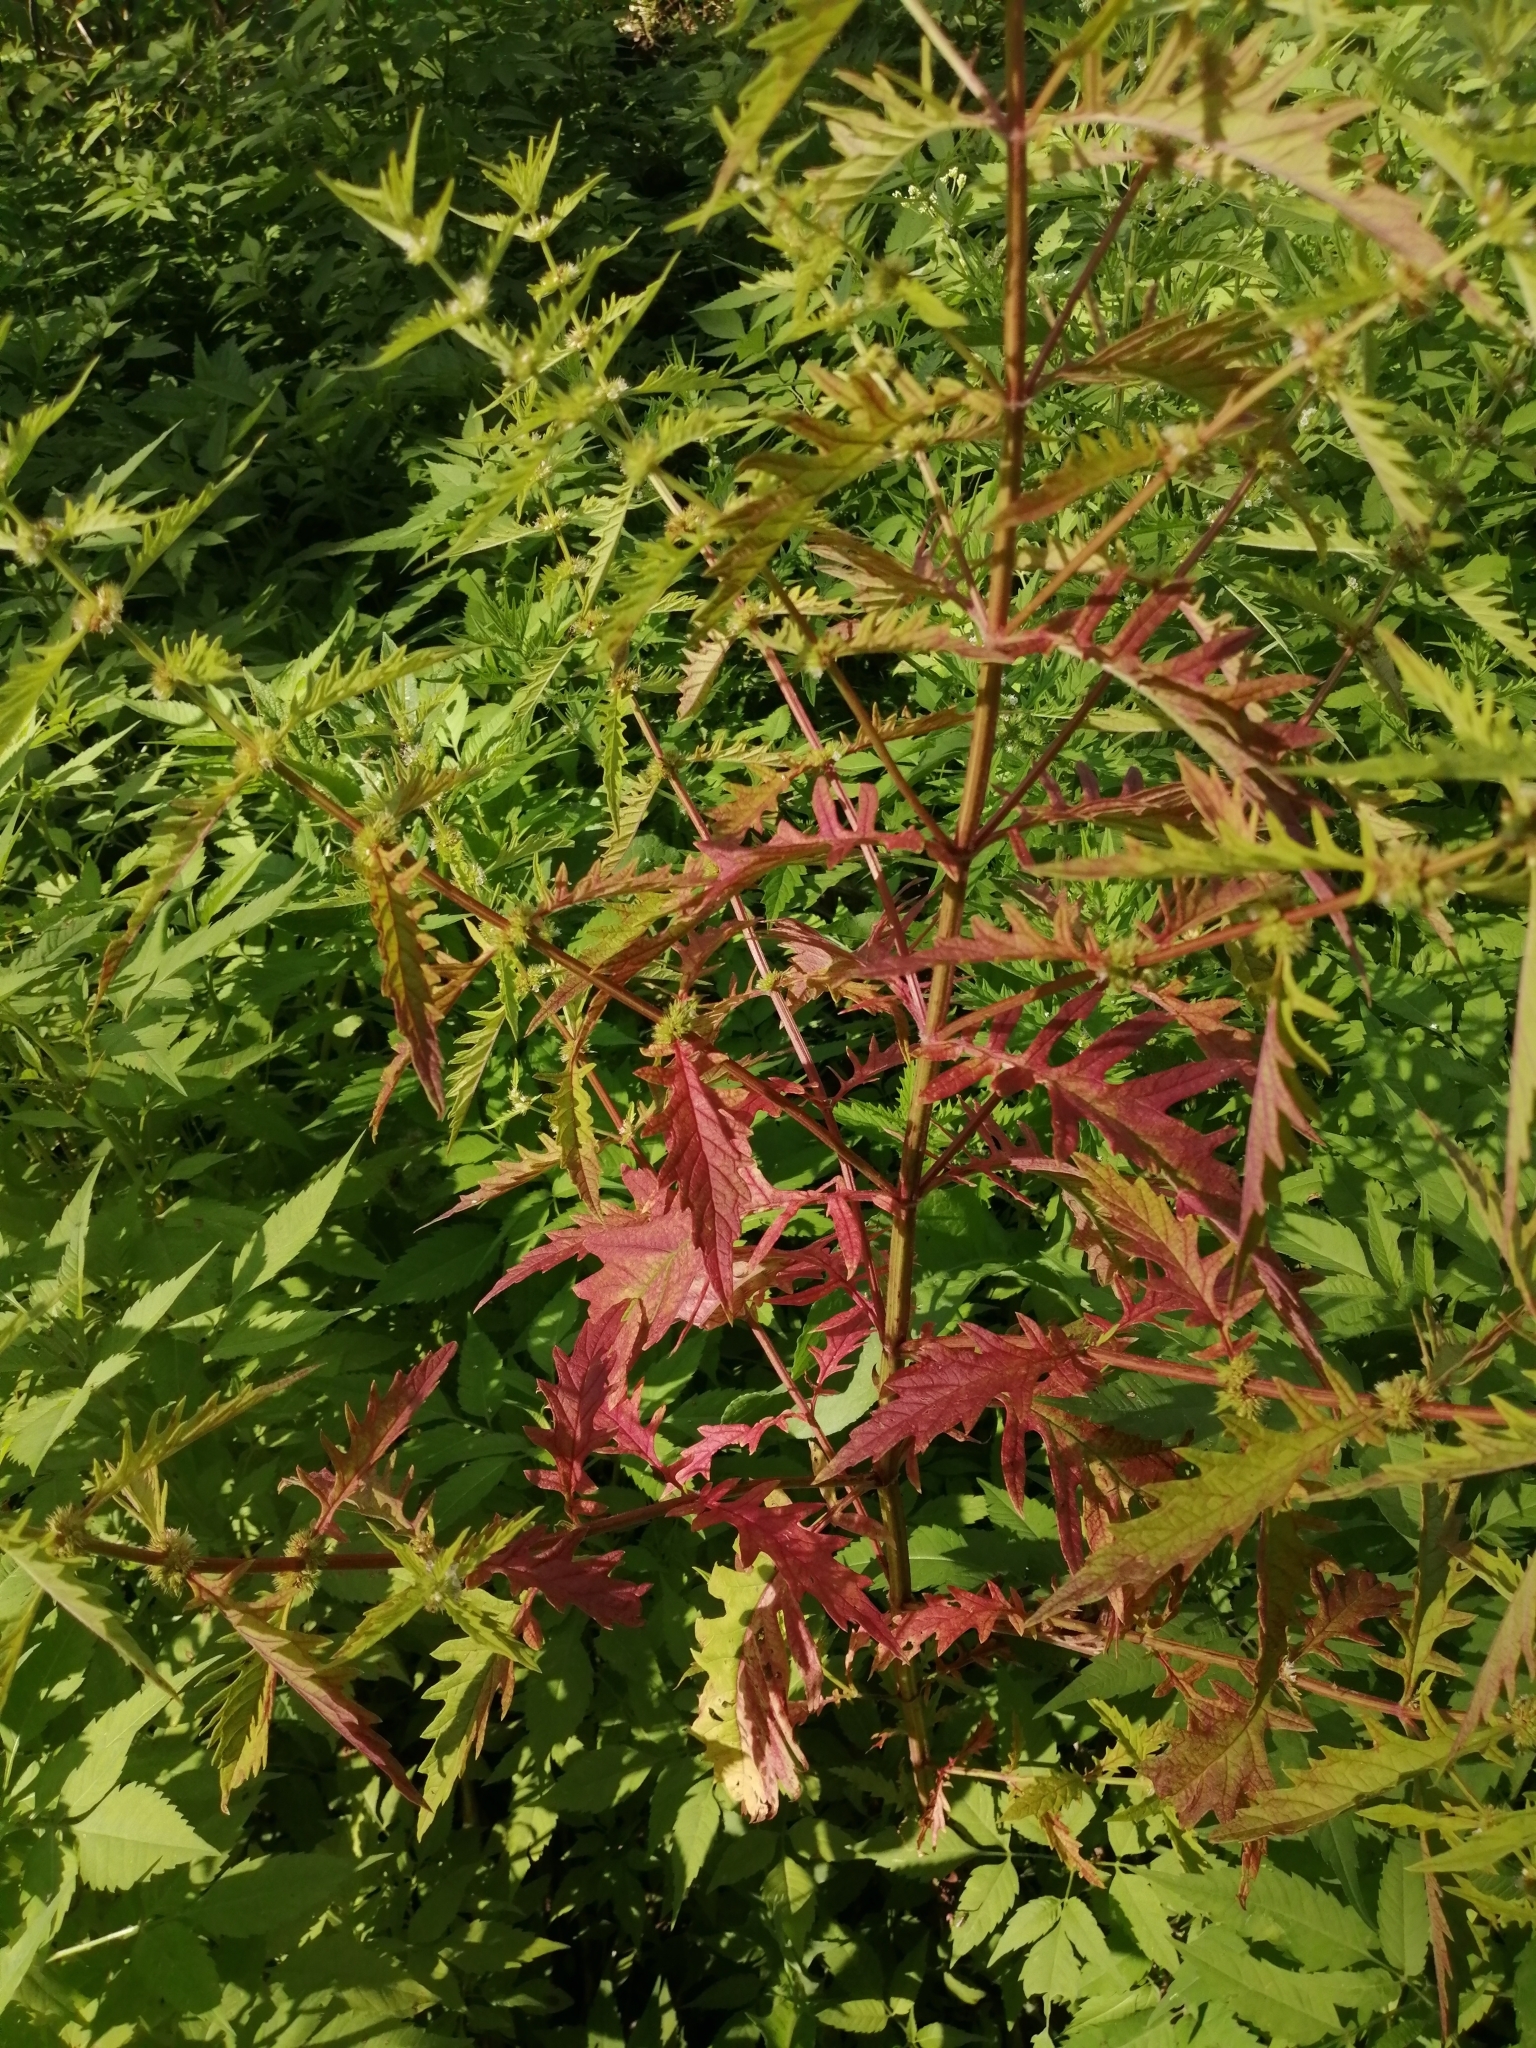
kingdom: Plantae
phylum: Tracheophyta
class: Magnoliopsida
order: Lamiales
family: Lamiaceae
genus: Lycopus
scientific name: Lycopus exaltatus
